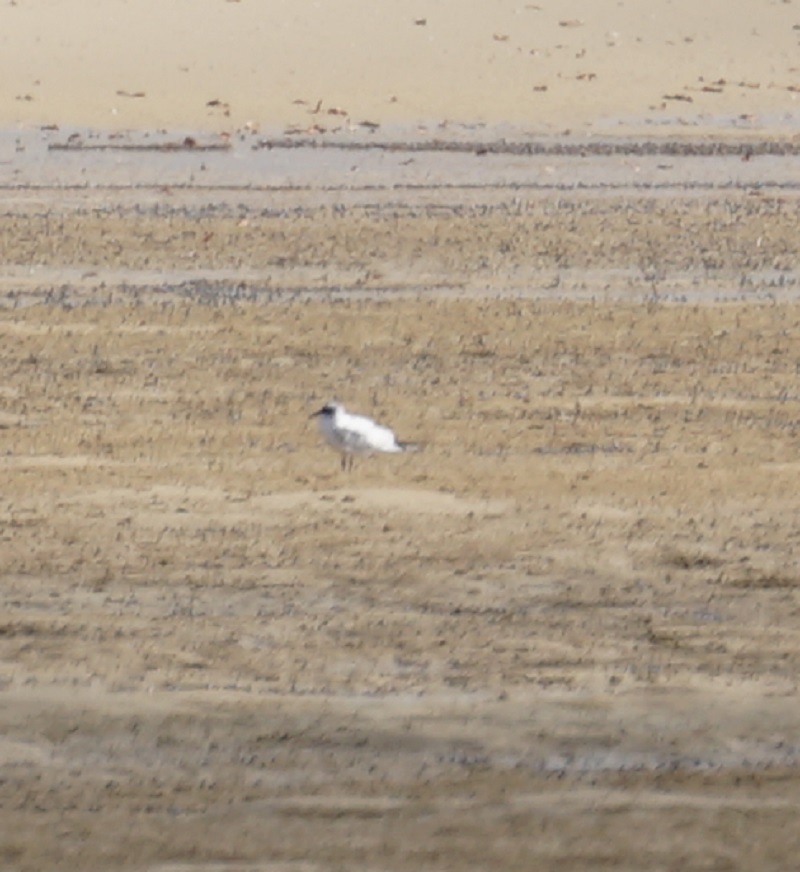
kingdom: Animalia
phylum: Chordata
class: Aves
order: Charadriiformes
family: Laridae
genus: Gelochelidon
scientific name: Gelochelidon macrotarsa
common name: Australian tern
